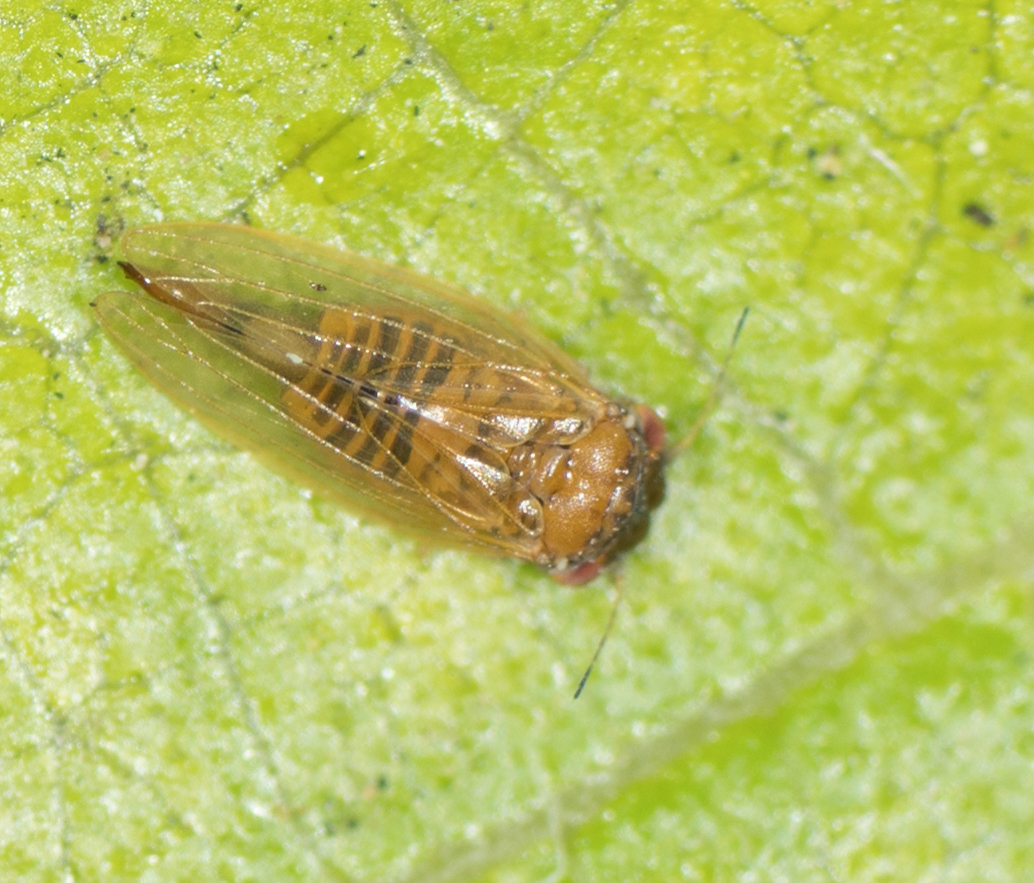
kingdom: Animalia
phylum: Arthropoda
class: Insecta
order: Hemiptera
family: Aphalaridae
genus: Ctenarytaina
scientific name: Ctenarytaina longicauda
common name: Tristania psyllid
